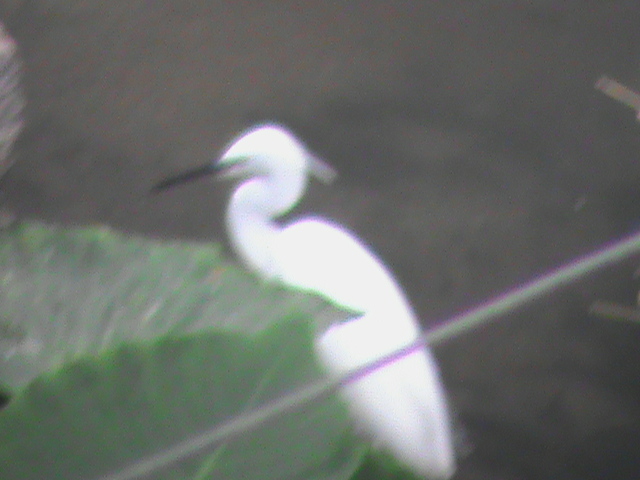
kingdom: Animalia
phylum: Chordata
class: Aves
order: Pelecaniformes
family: Ardeidae
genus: Egretta
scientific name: Egretta garzetta
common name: Little egret
